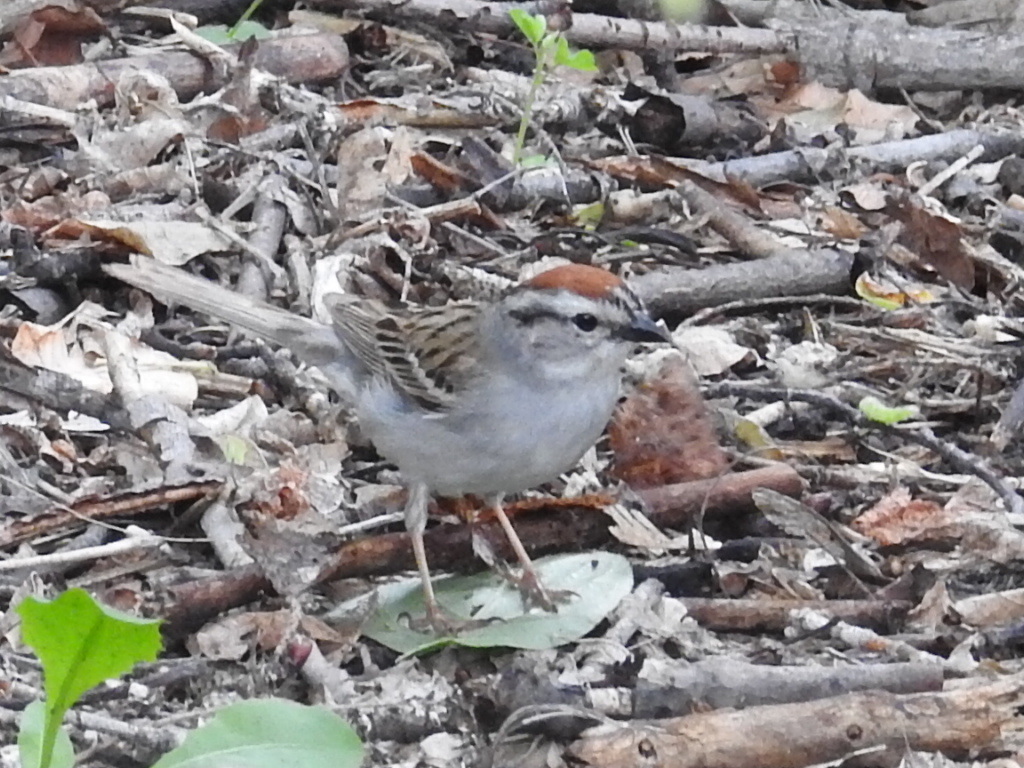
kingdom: Animalia
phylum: Chordata
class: Aves
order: Passeriformes
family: Passerellidae
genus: Spizella
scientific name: Spizella passerina
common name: Chipping sparrow
